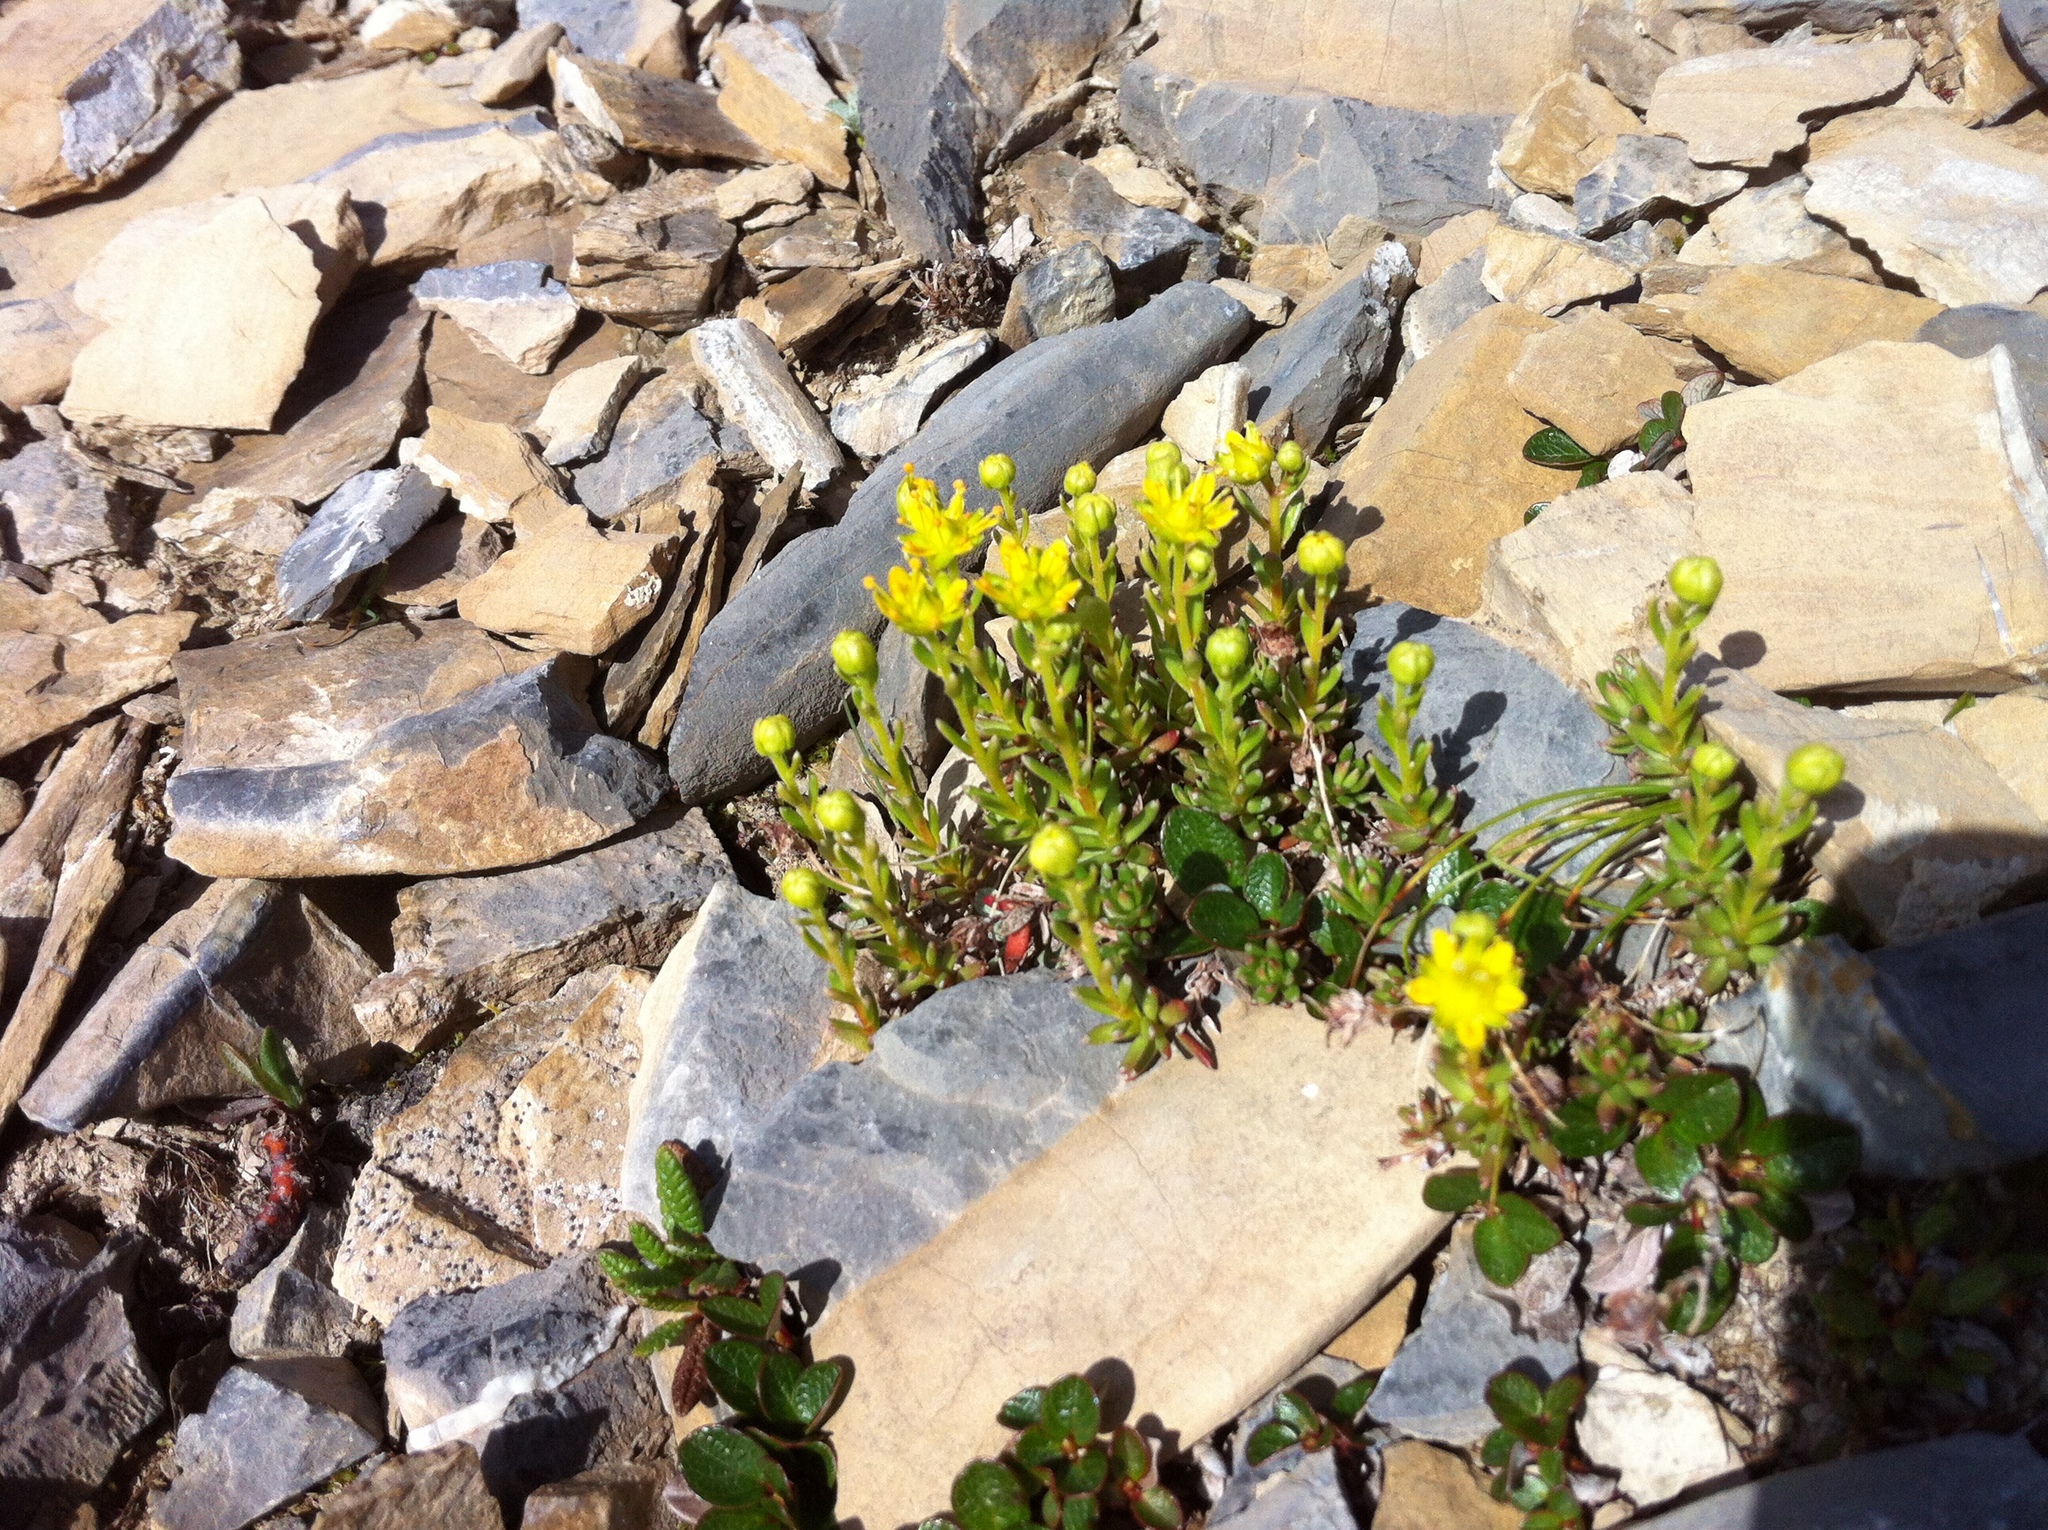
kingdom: Plantae
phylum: Tracheophyta
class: Magnoliopsida
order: Saxifragales
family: Saxifragaceae
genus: Saxifraga
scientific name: Saxifraga aizoides
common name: Yellow mountain saxifrage
